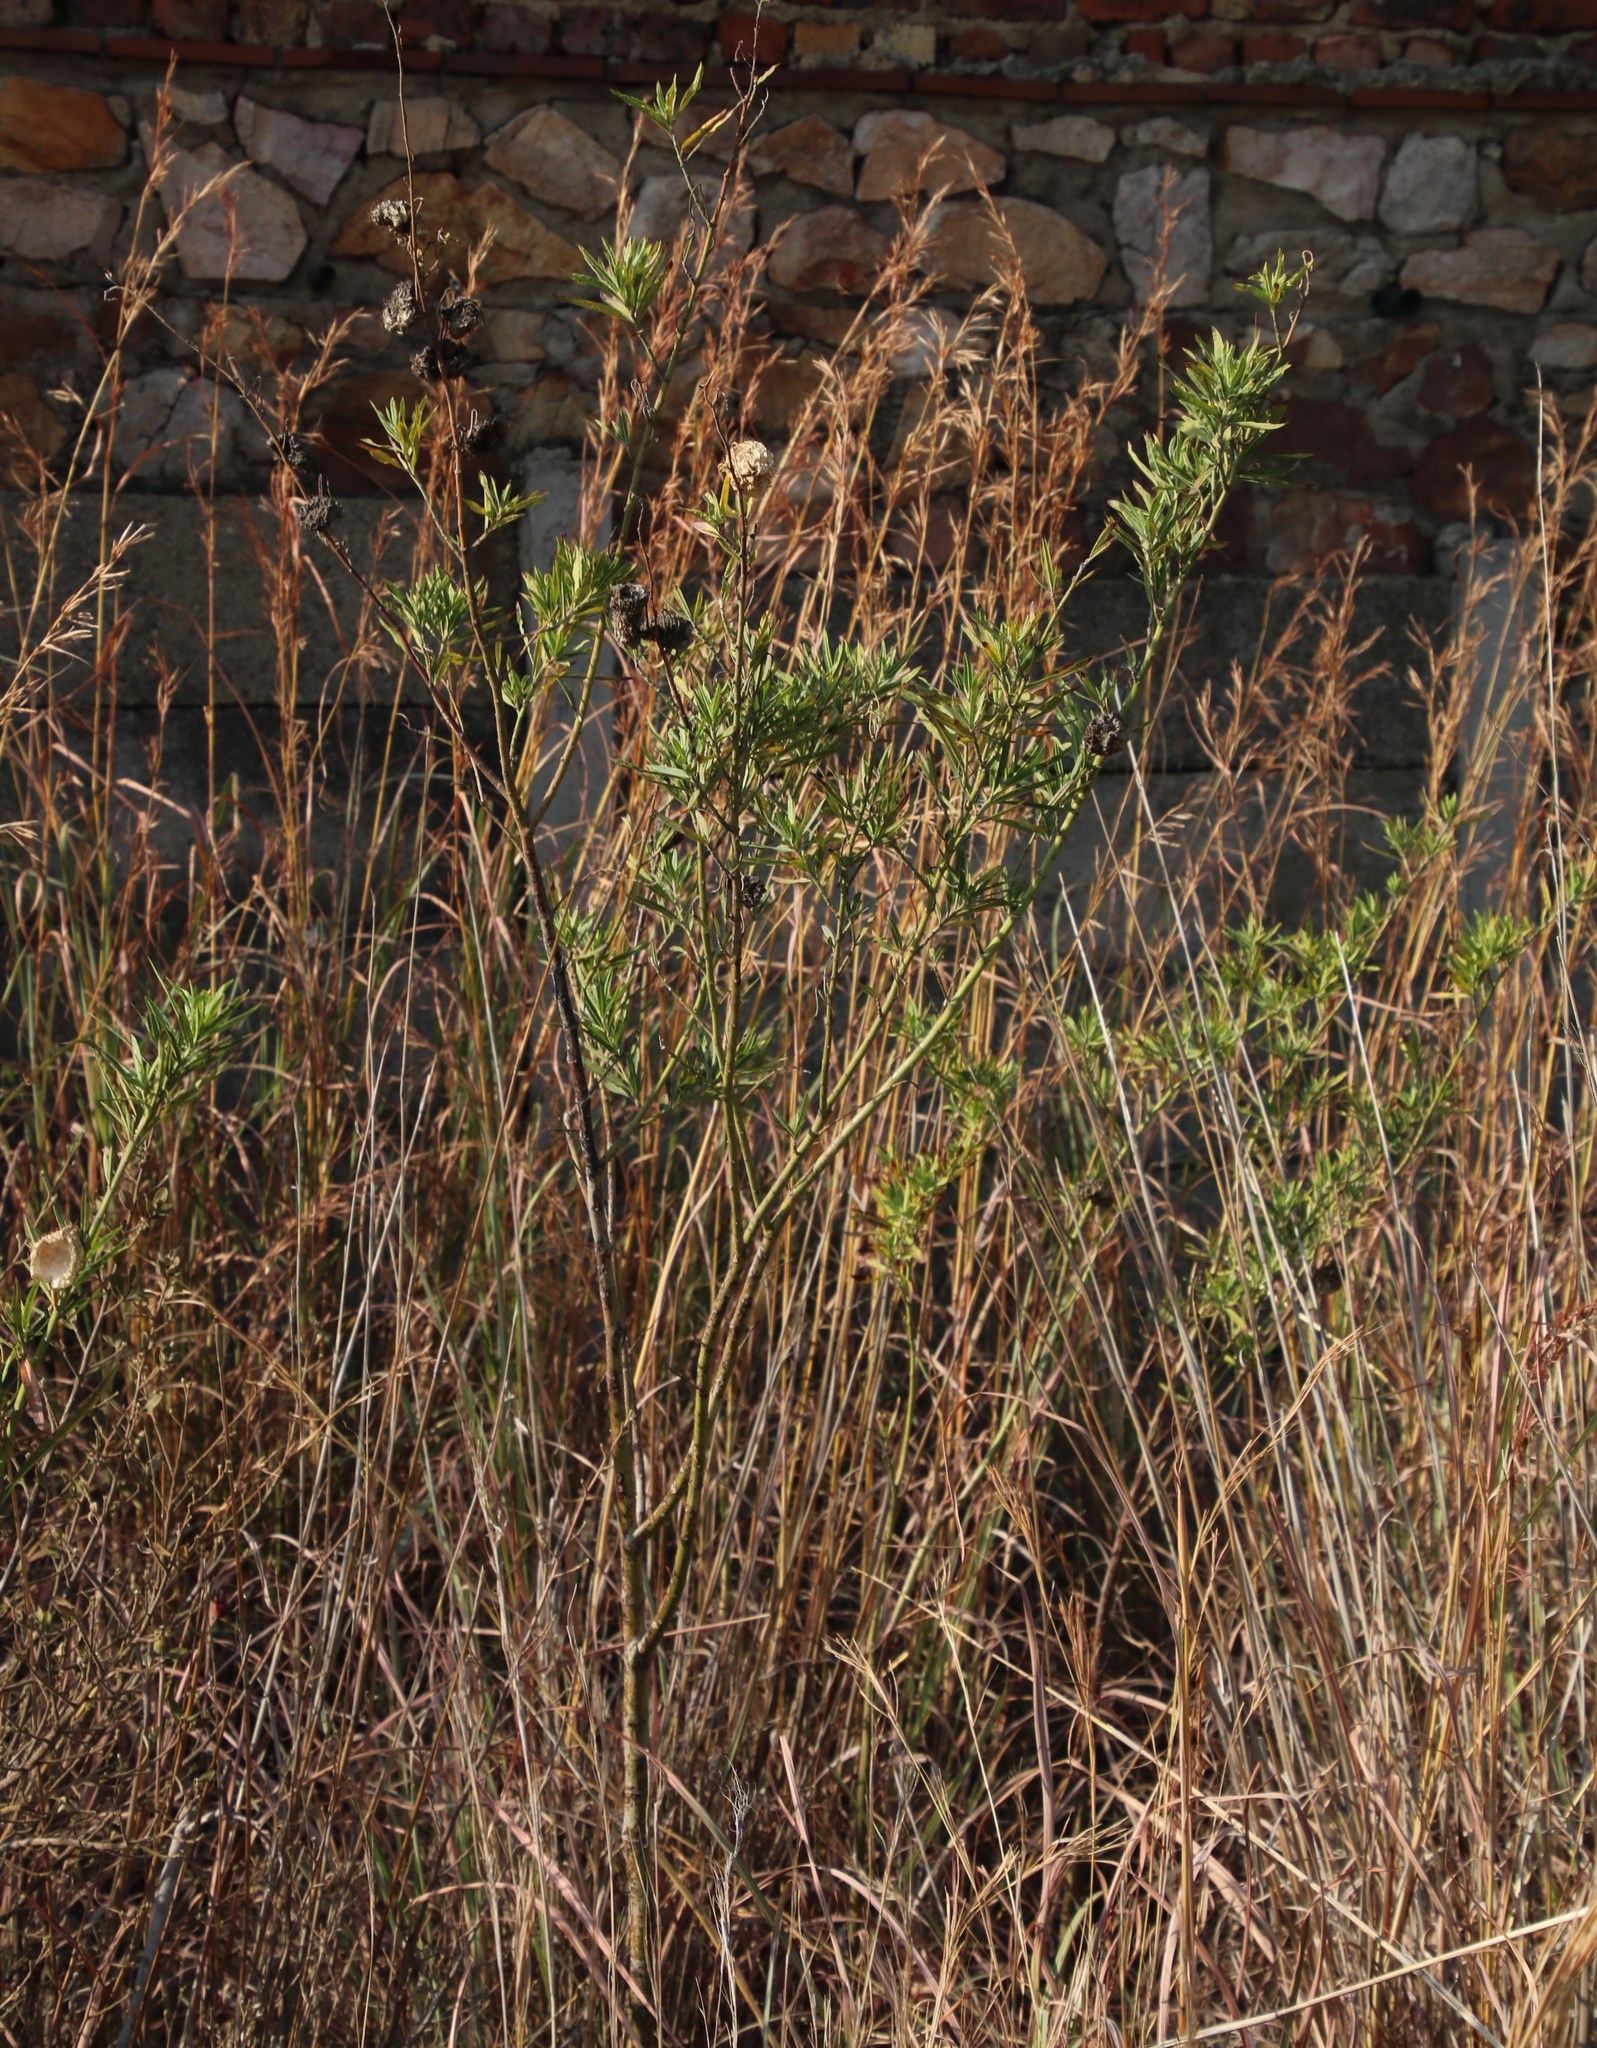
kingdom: Plantae
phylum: Tracheophyta
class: Magnoliopsida
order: Gentianales
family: Apocynaceae
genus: Gomphocarpus
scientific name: Gomphocarpus fruticosus
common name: Milkweed
